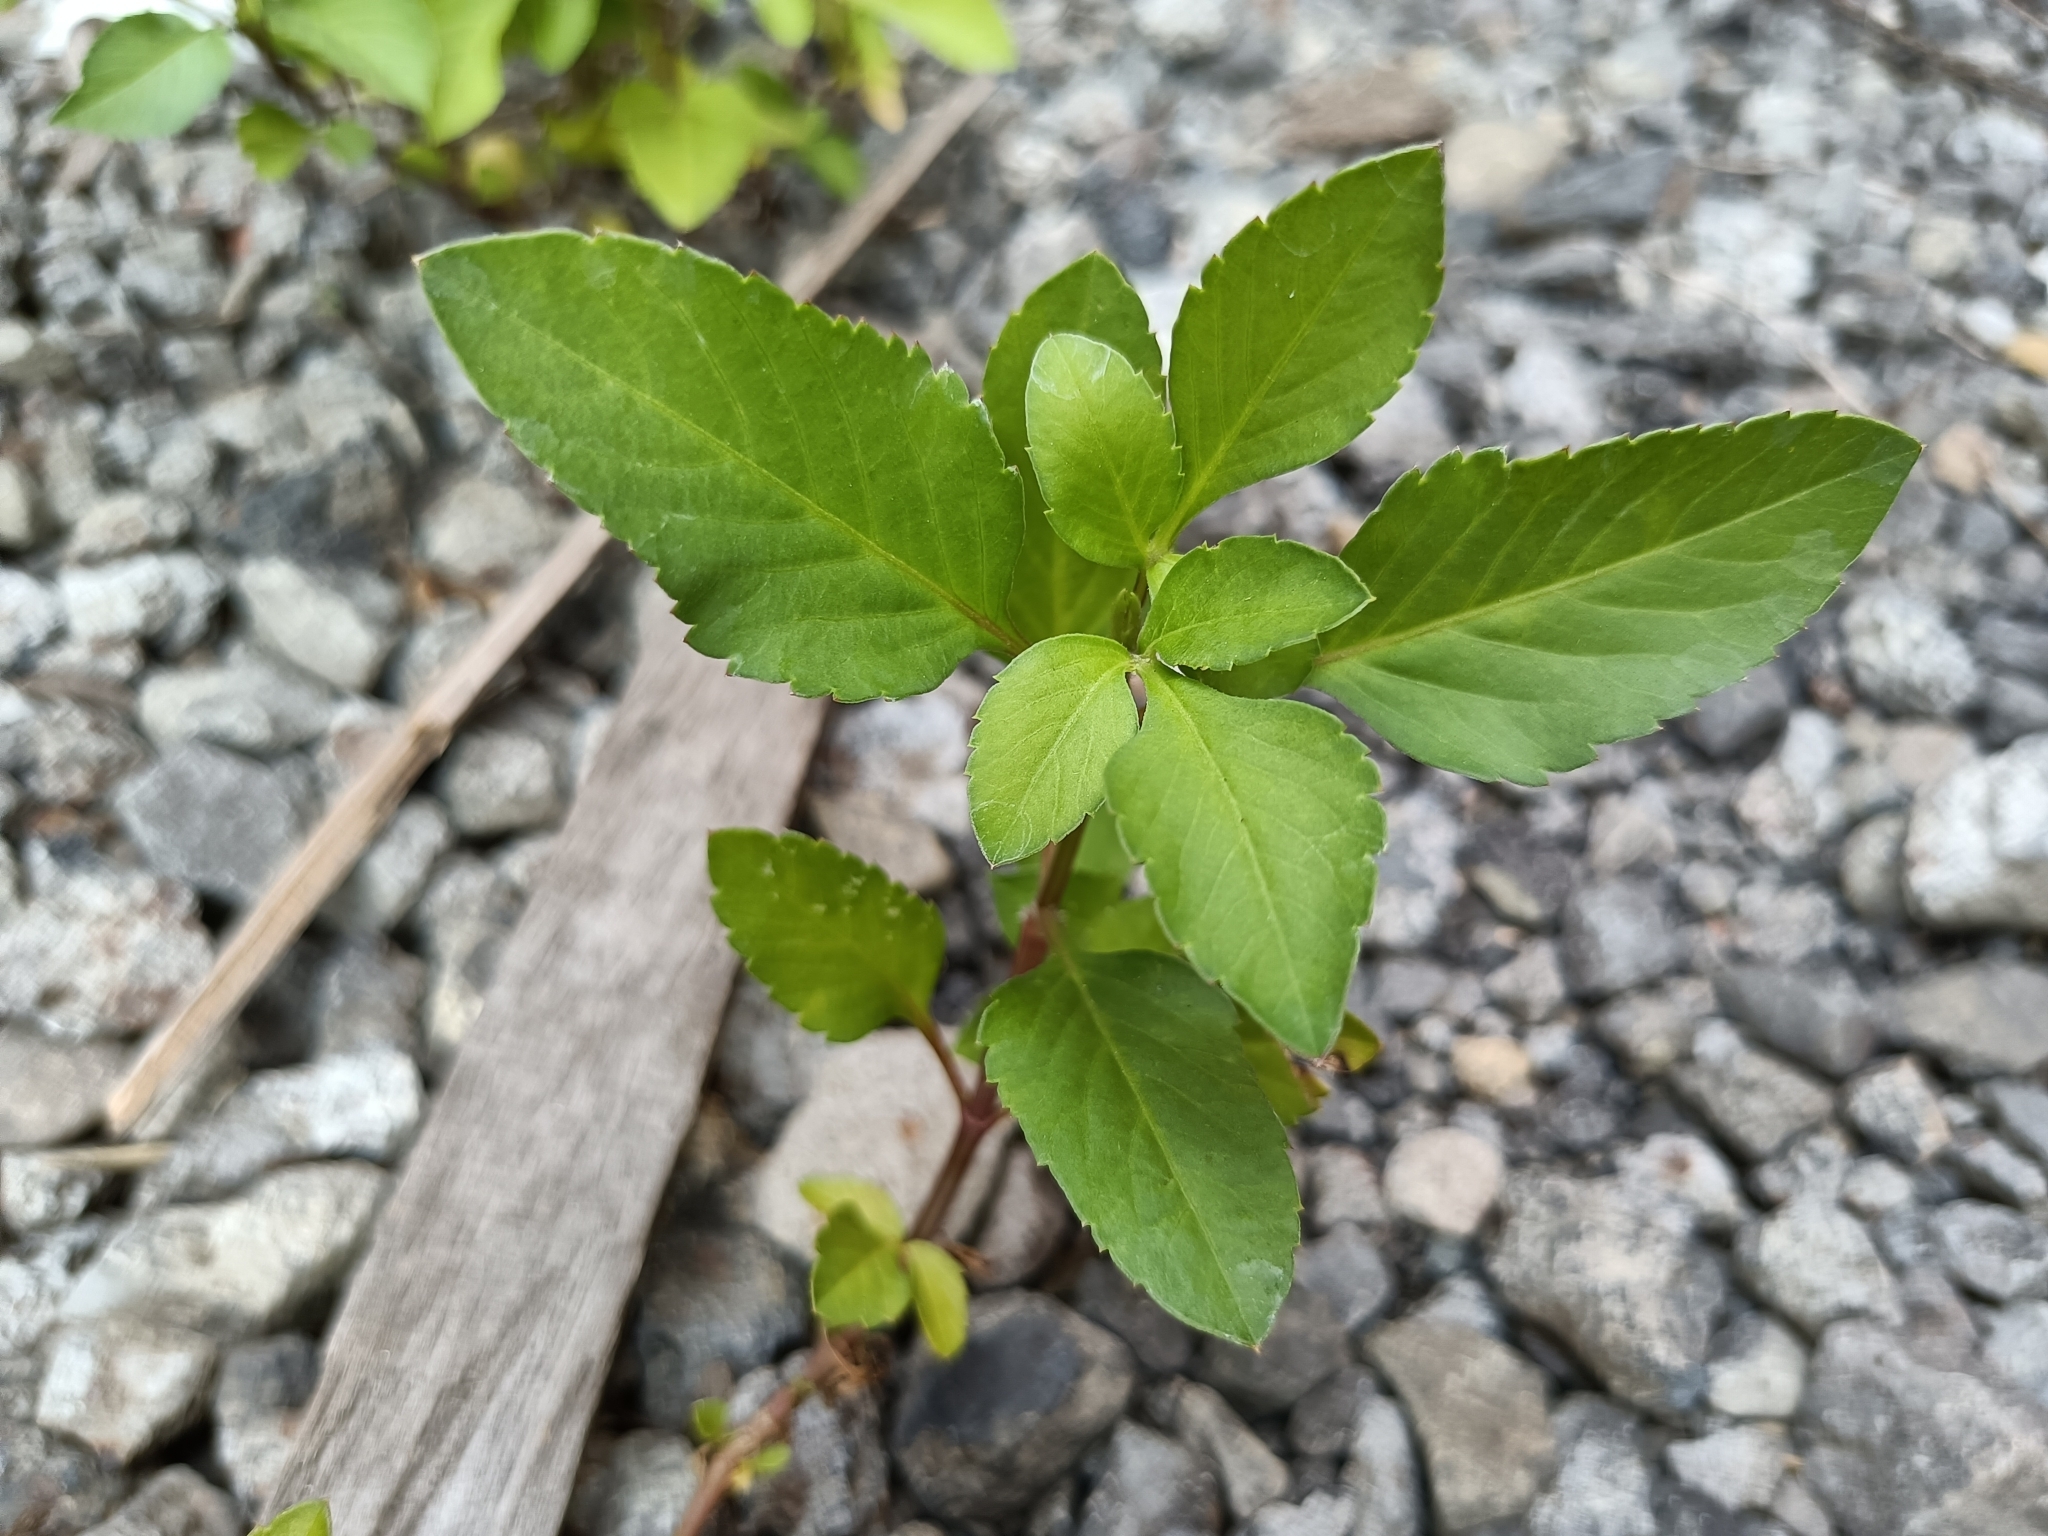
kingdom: Plantae
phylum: Tracheophyta
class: Magnoliopsida
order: Asterales
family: Asteraceae
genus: Bidens
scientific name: Bidens alba
